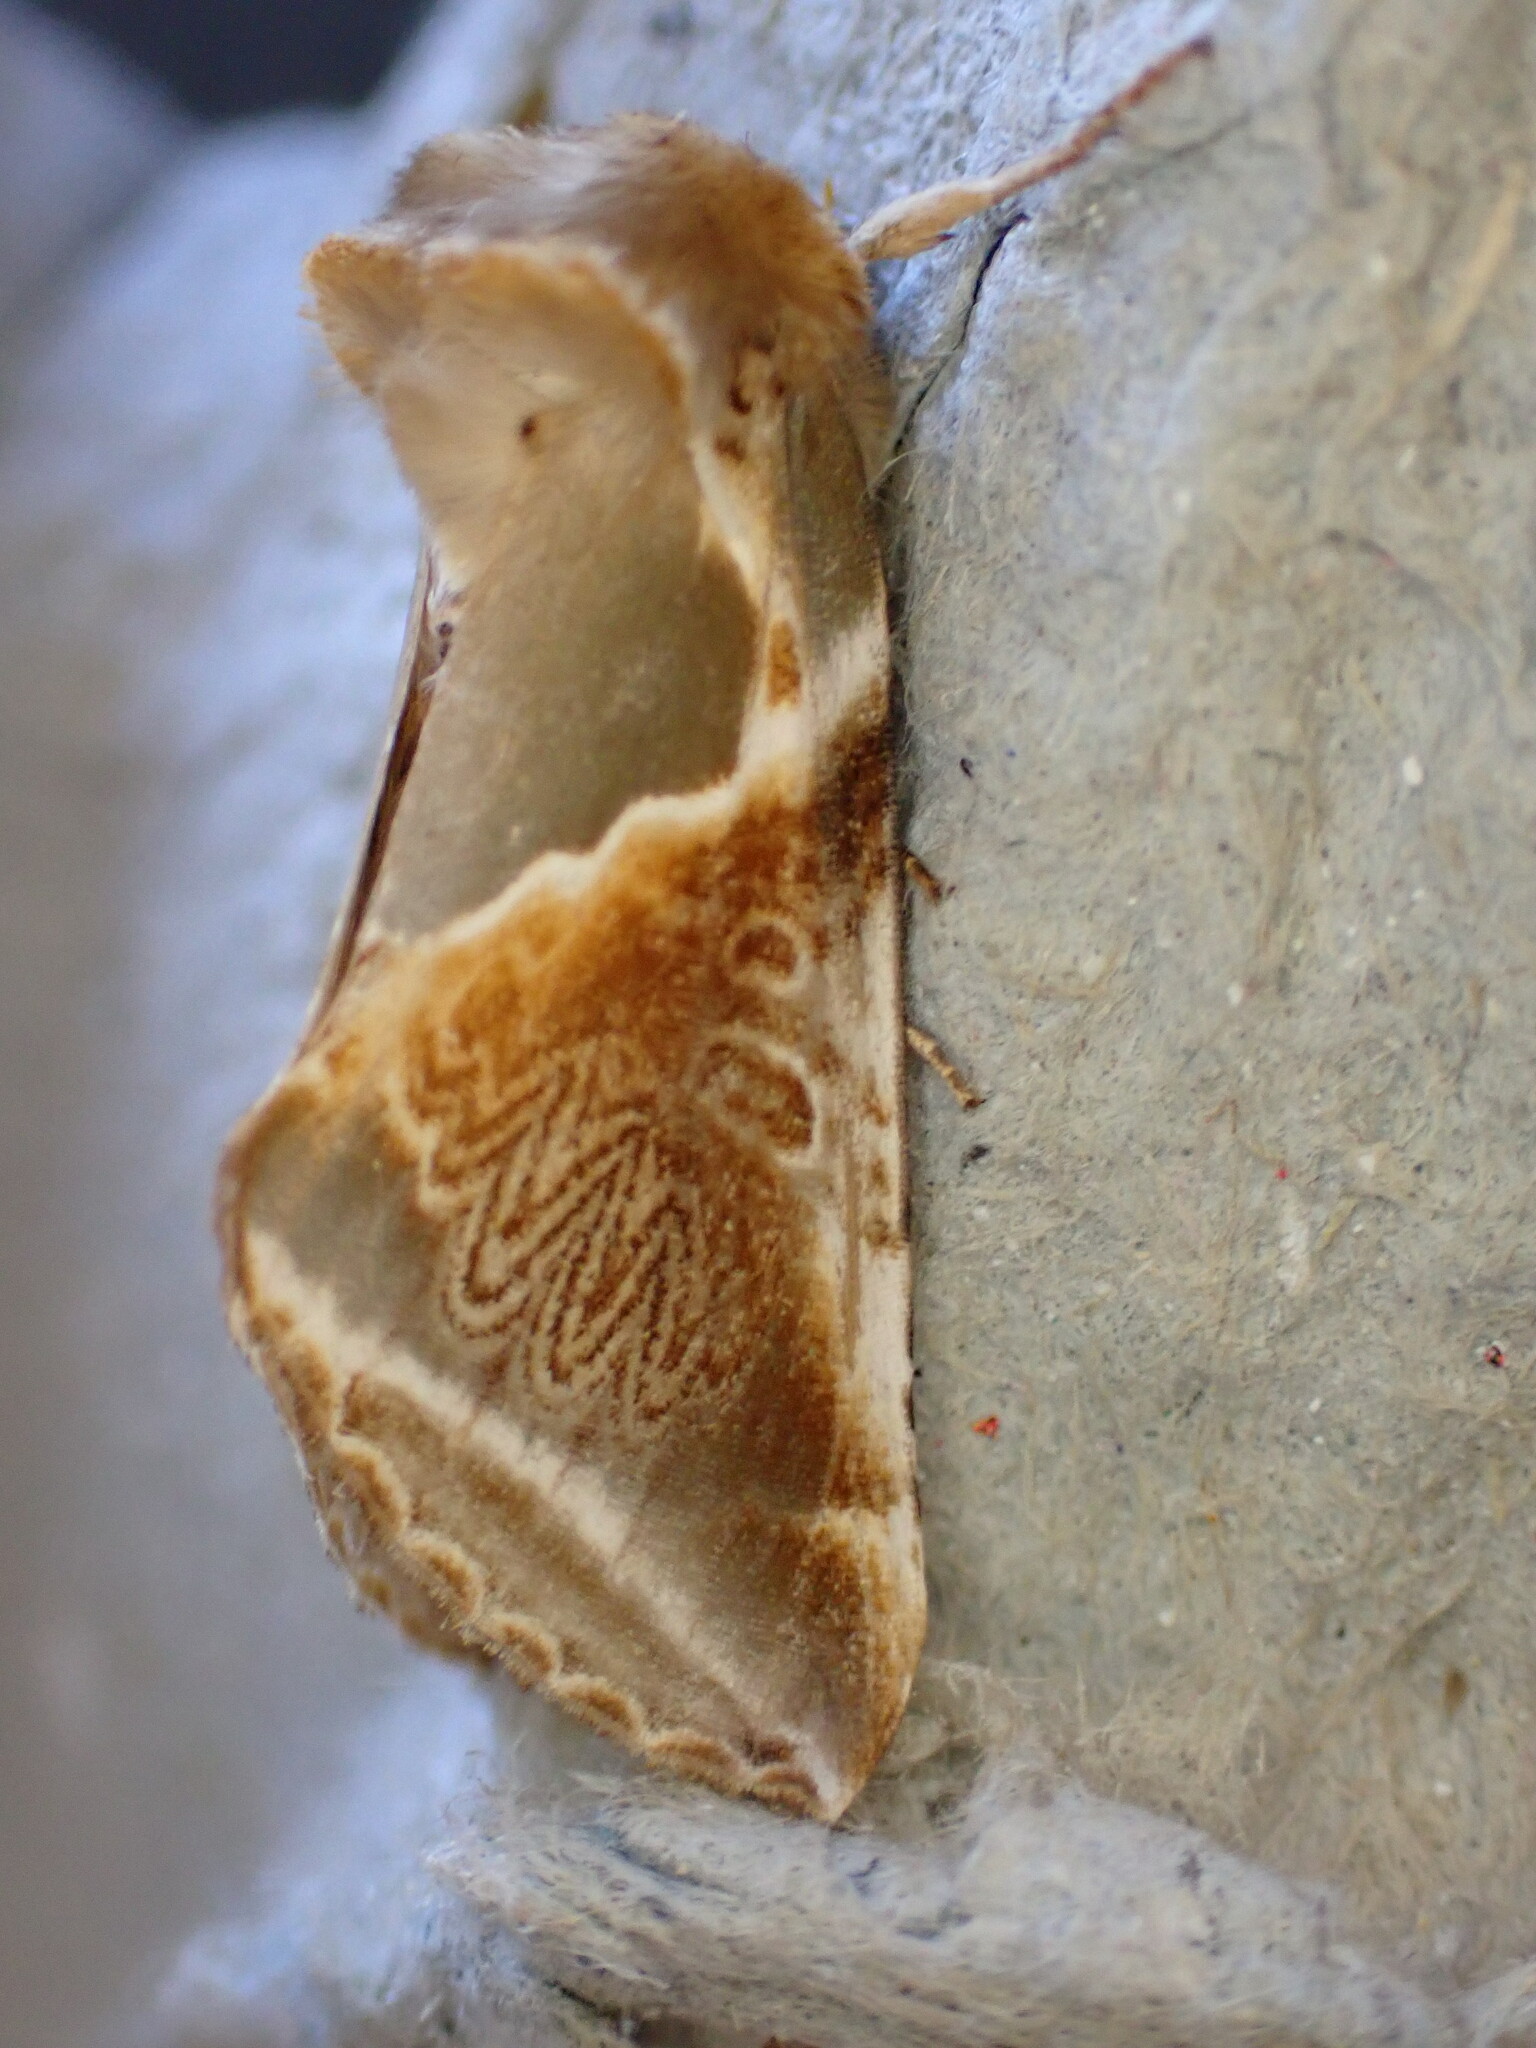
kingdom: Animalia
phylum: Arthropoda
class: Insecta
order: Lepidoptera
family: Drepanidae
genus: Habrosyne
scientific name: Habrosyne pyritoides
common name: Buff arches
